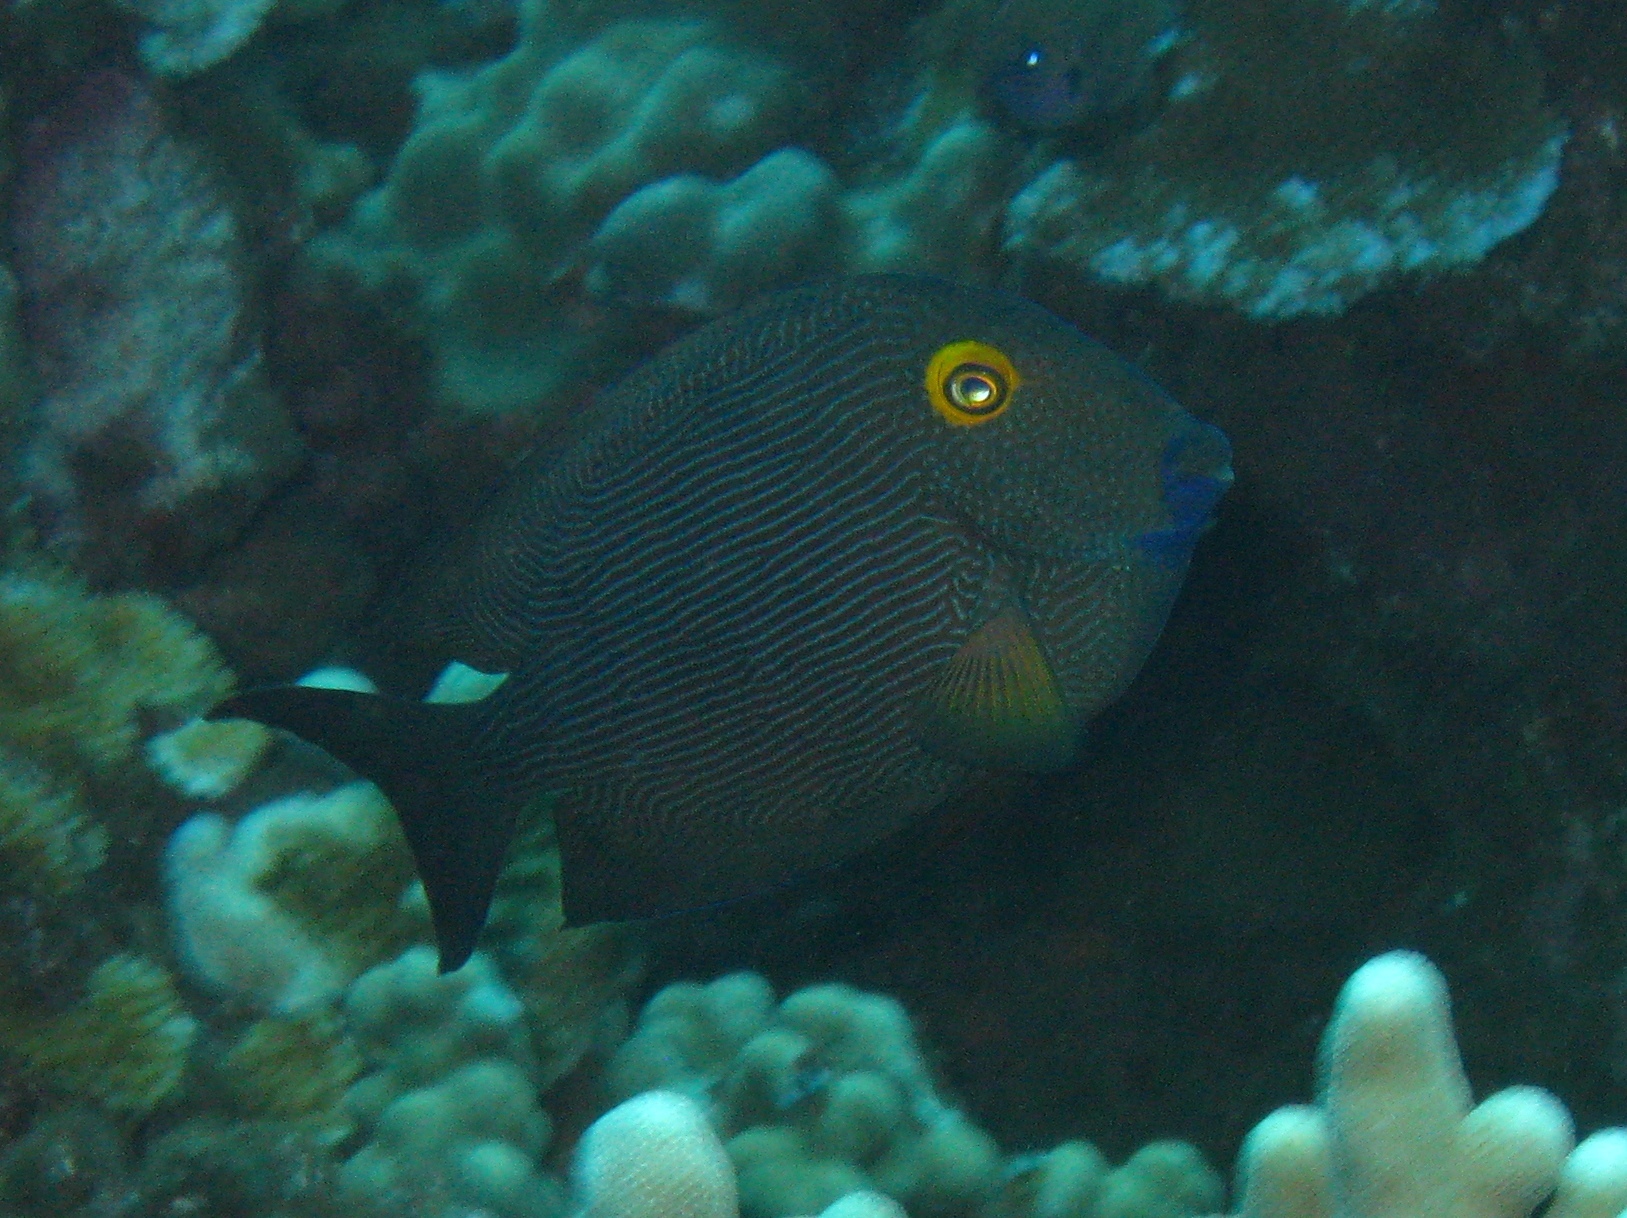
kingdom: Animalia
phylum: Chordata
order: Perciformes
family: Acanthuridae
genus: Ctenochaetus
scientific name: Ctenochaetus strigosus
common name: Bristletoothed surgeonfish
